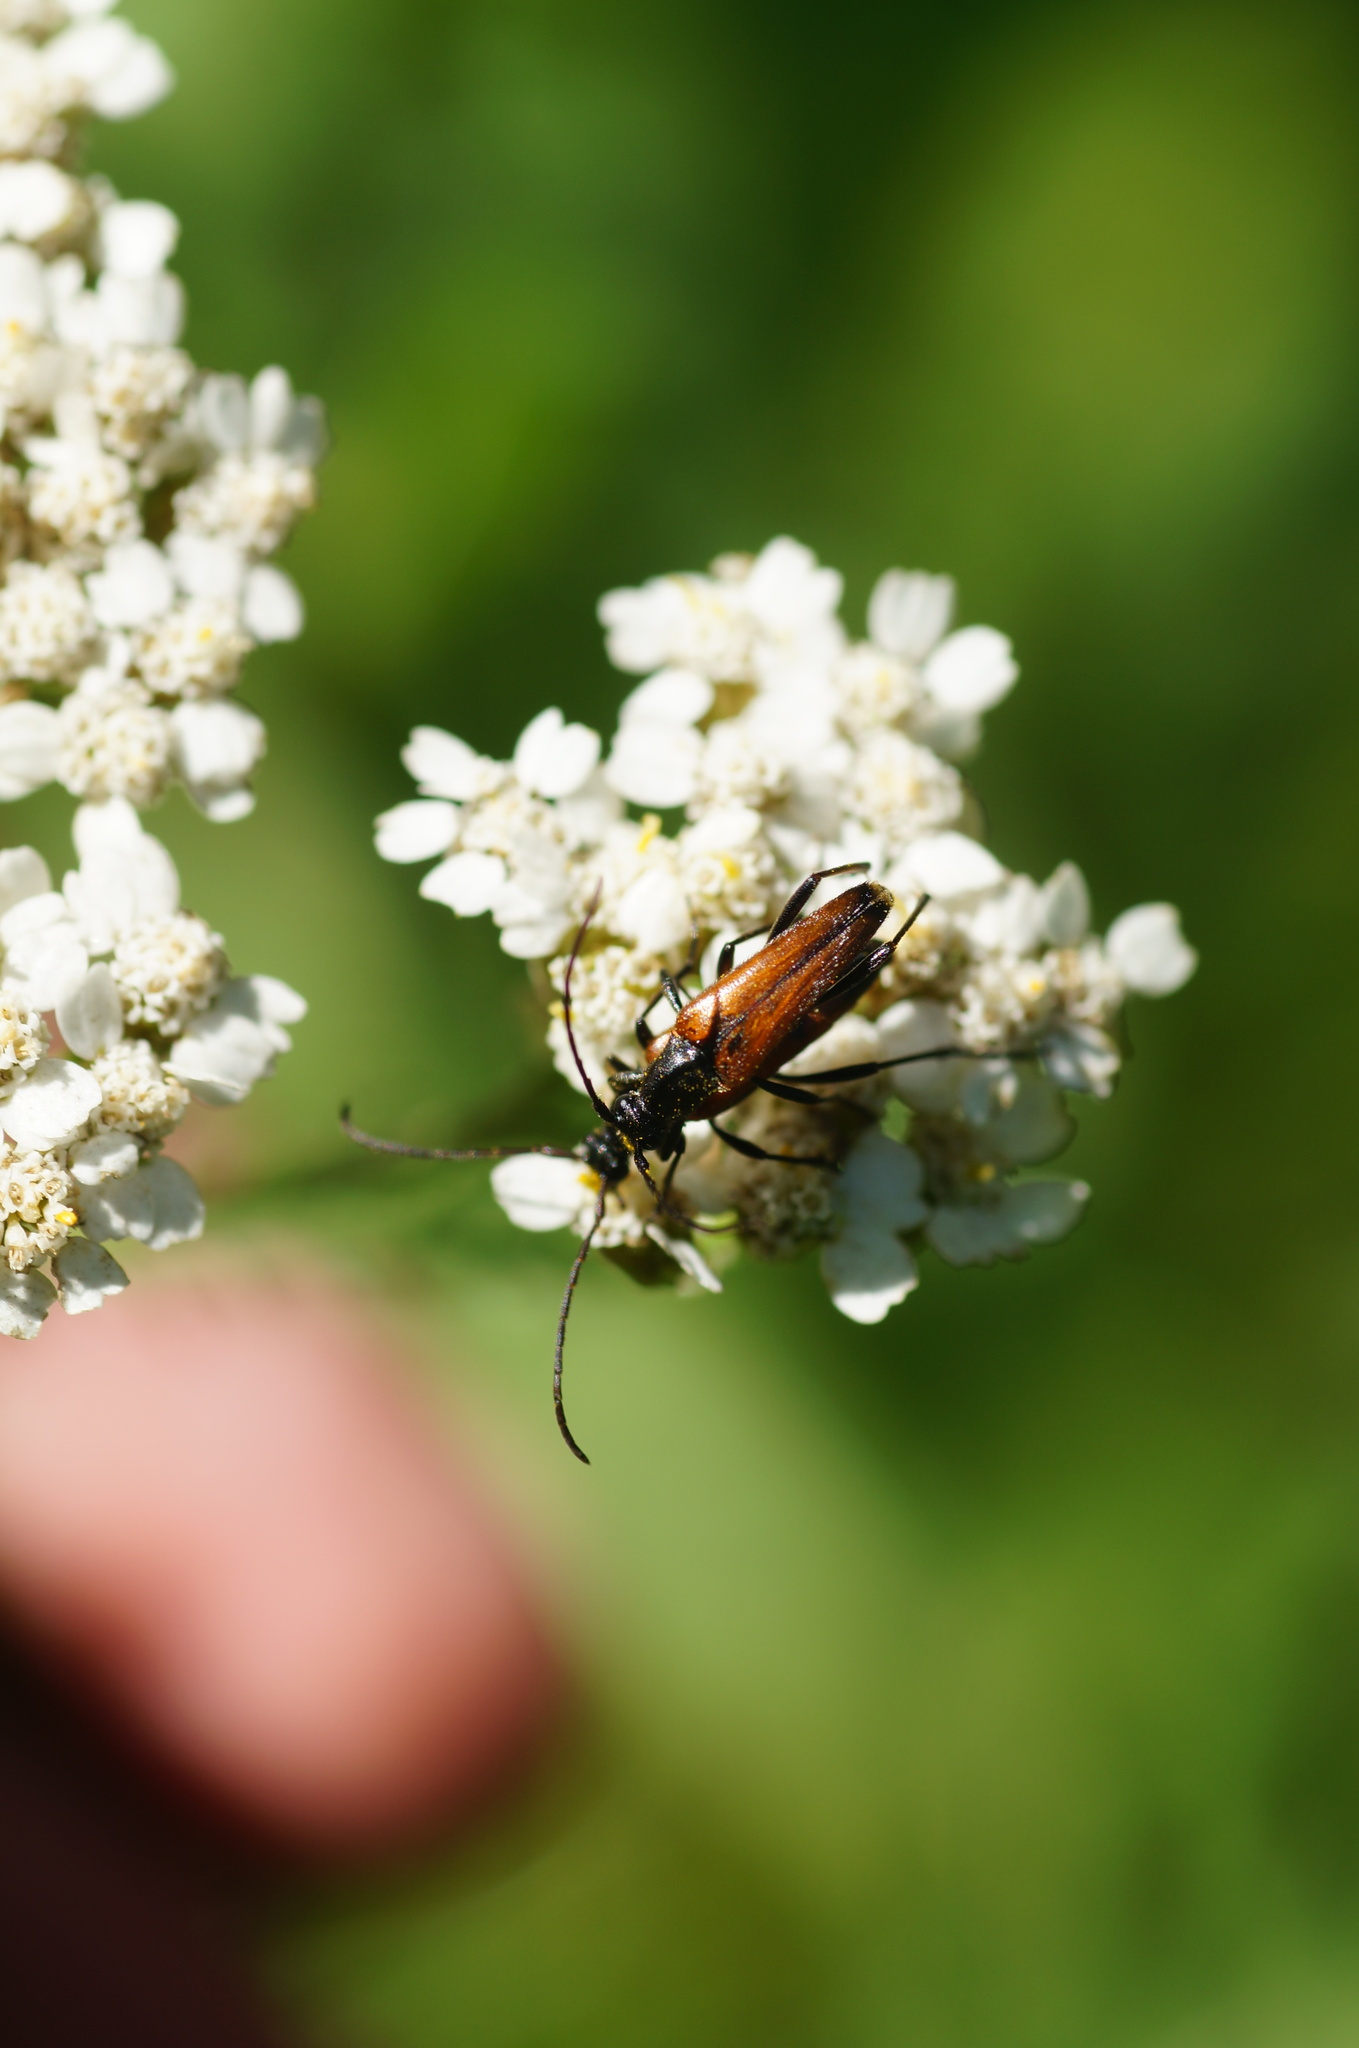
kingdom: Animalia
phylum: Arthropoda
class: Insecta
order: Coleoptera
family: Cerambycidae
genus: Stenurella
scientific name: Stenurella bifasciata
